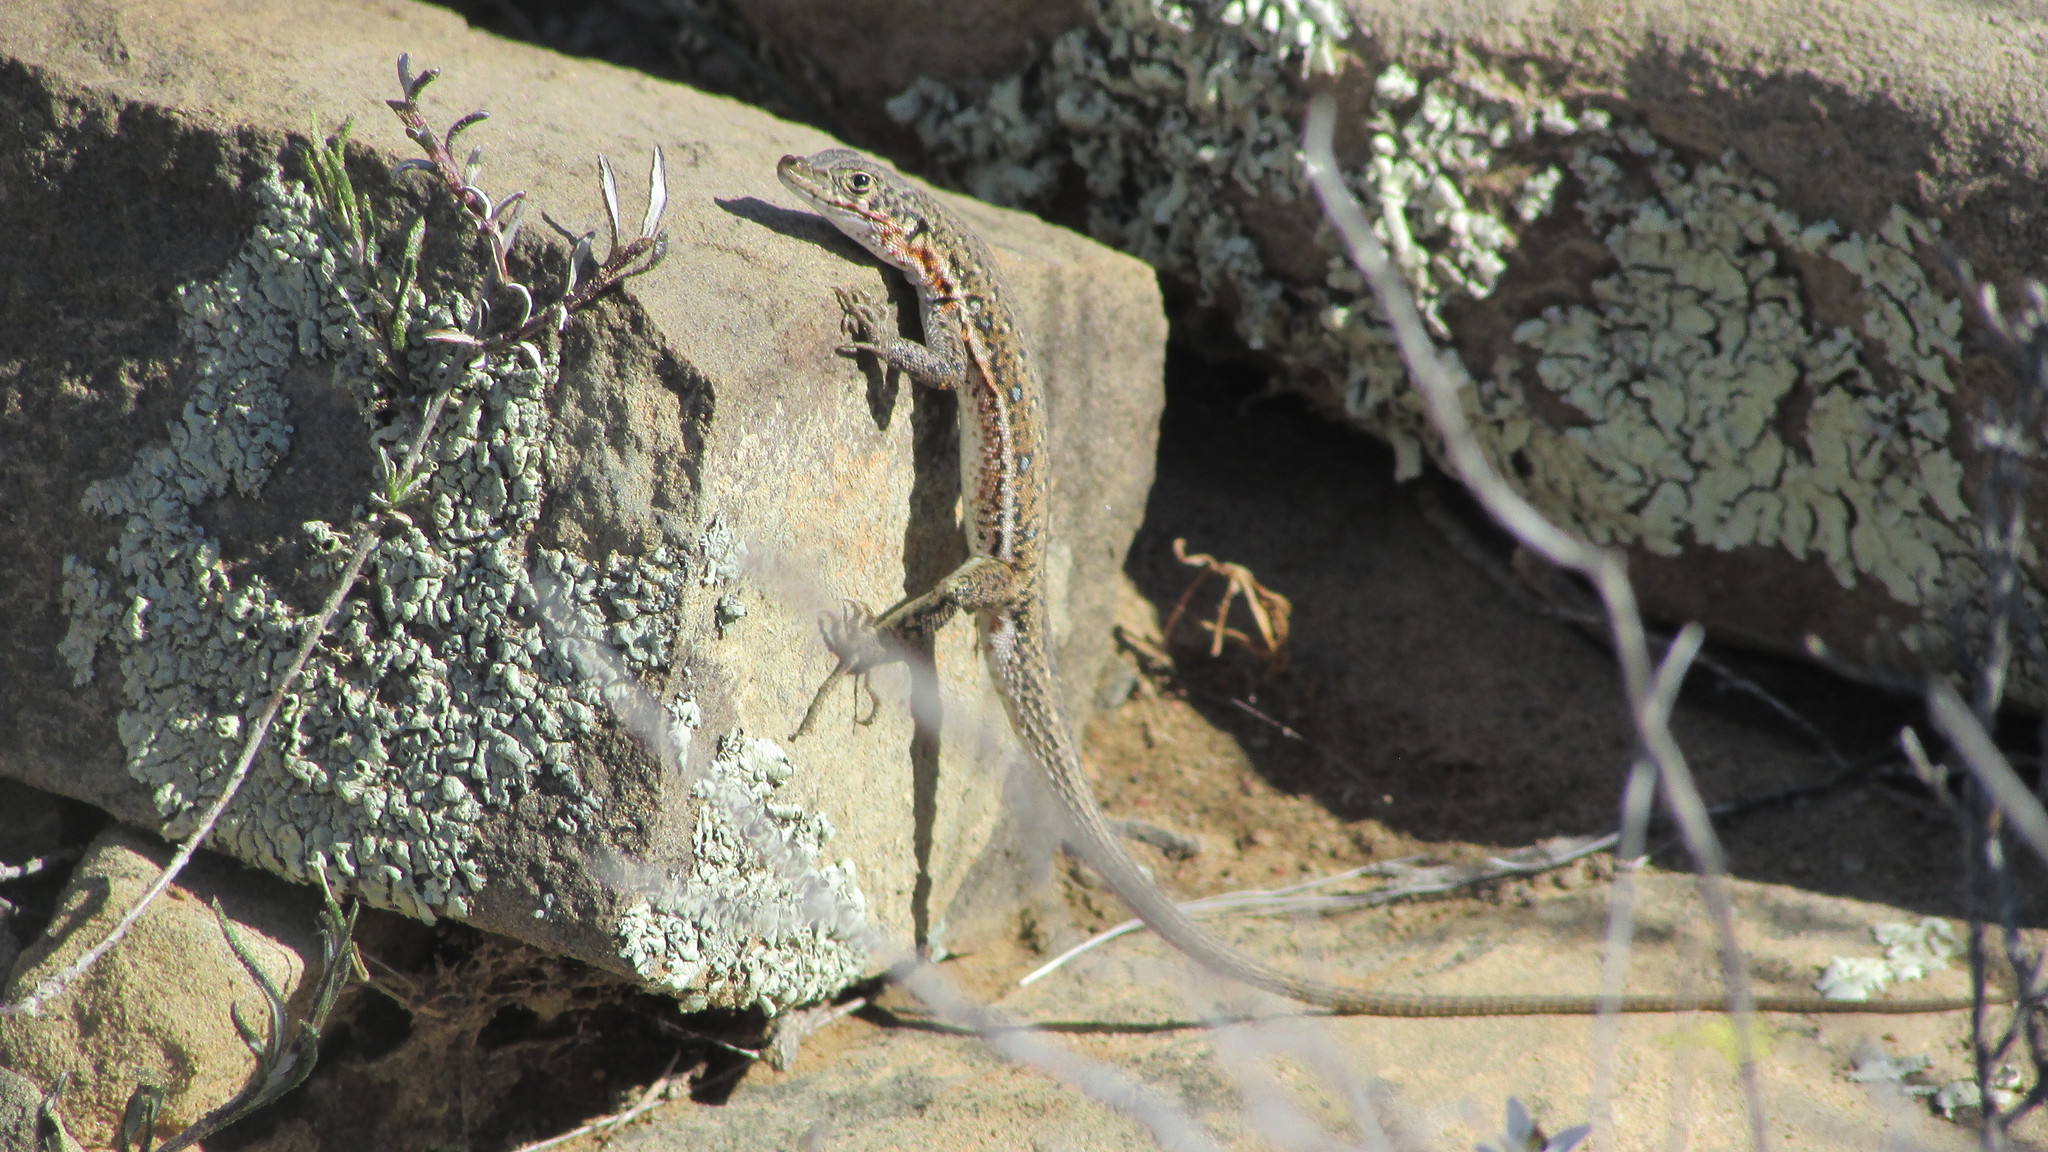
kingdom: Animalia
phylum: Chordata
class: Squamata
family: Lacertidae
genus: Pedioplanis
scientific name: Pedioplanis lineoocellata
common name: Spotted sand lizard
